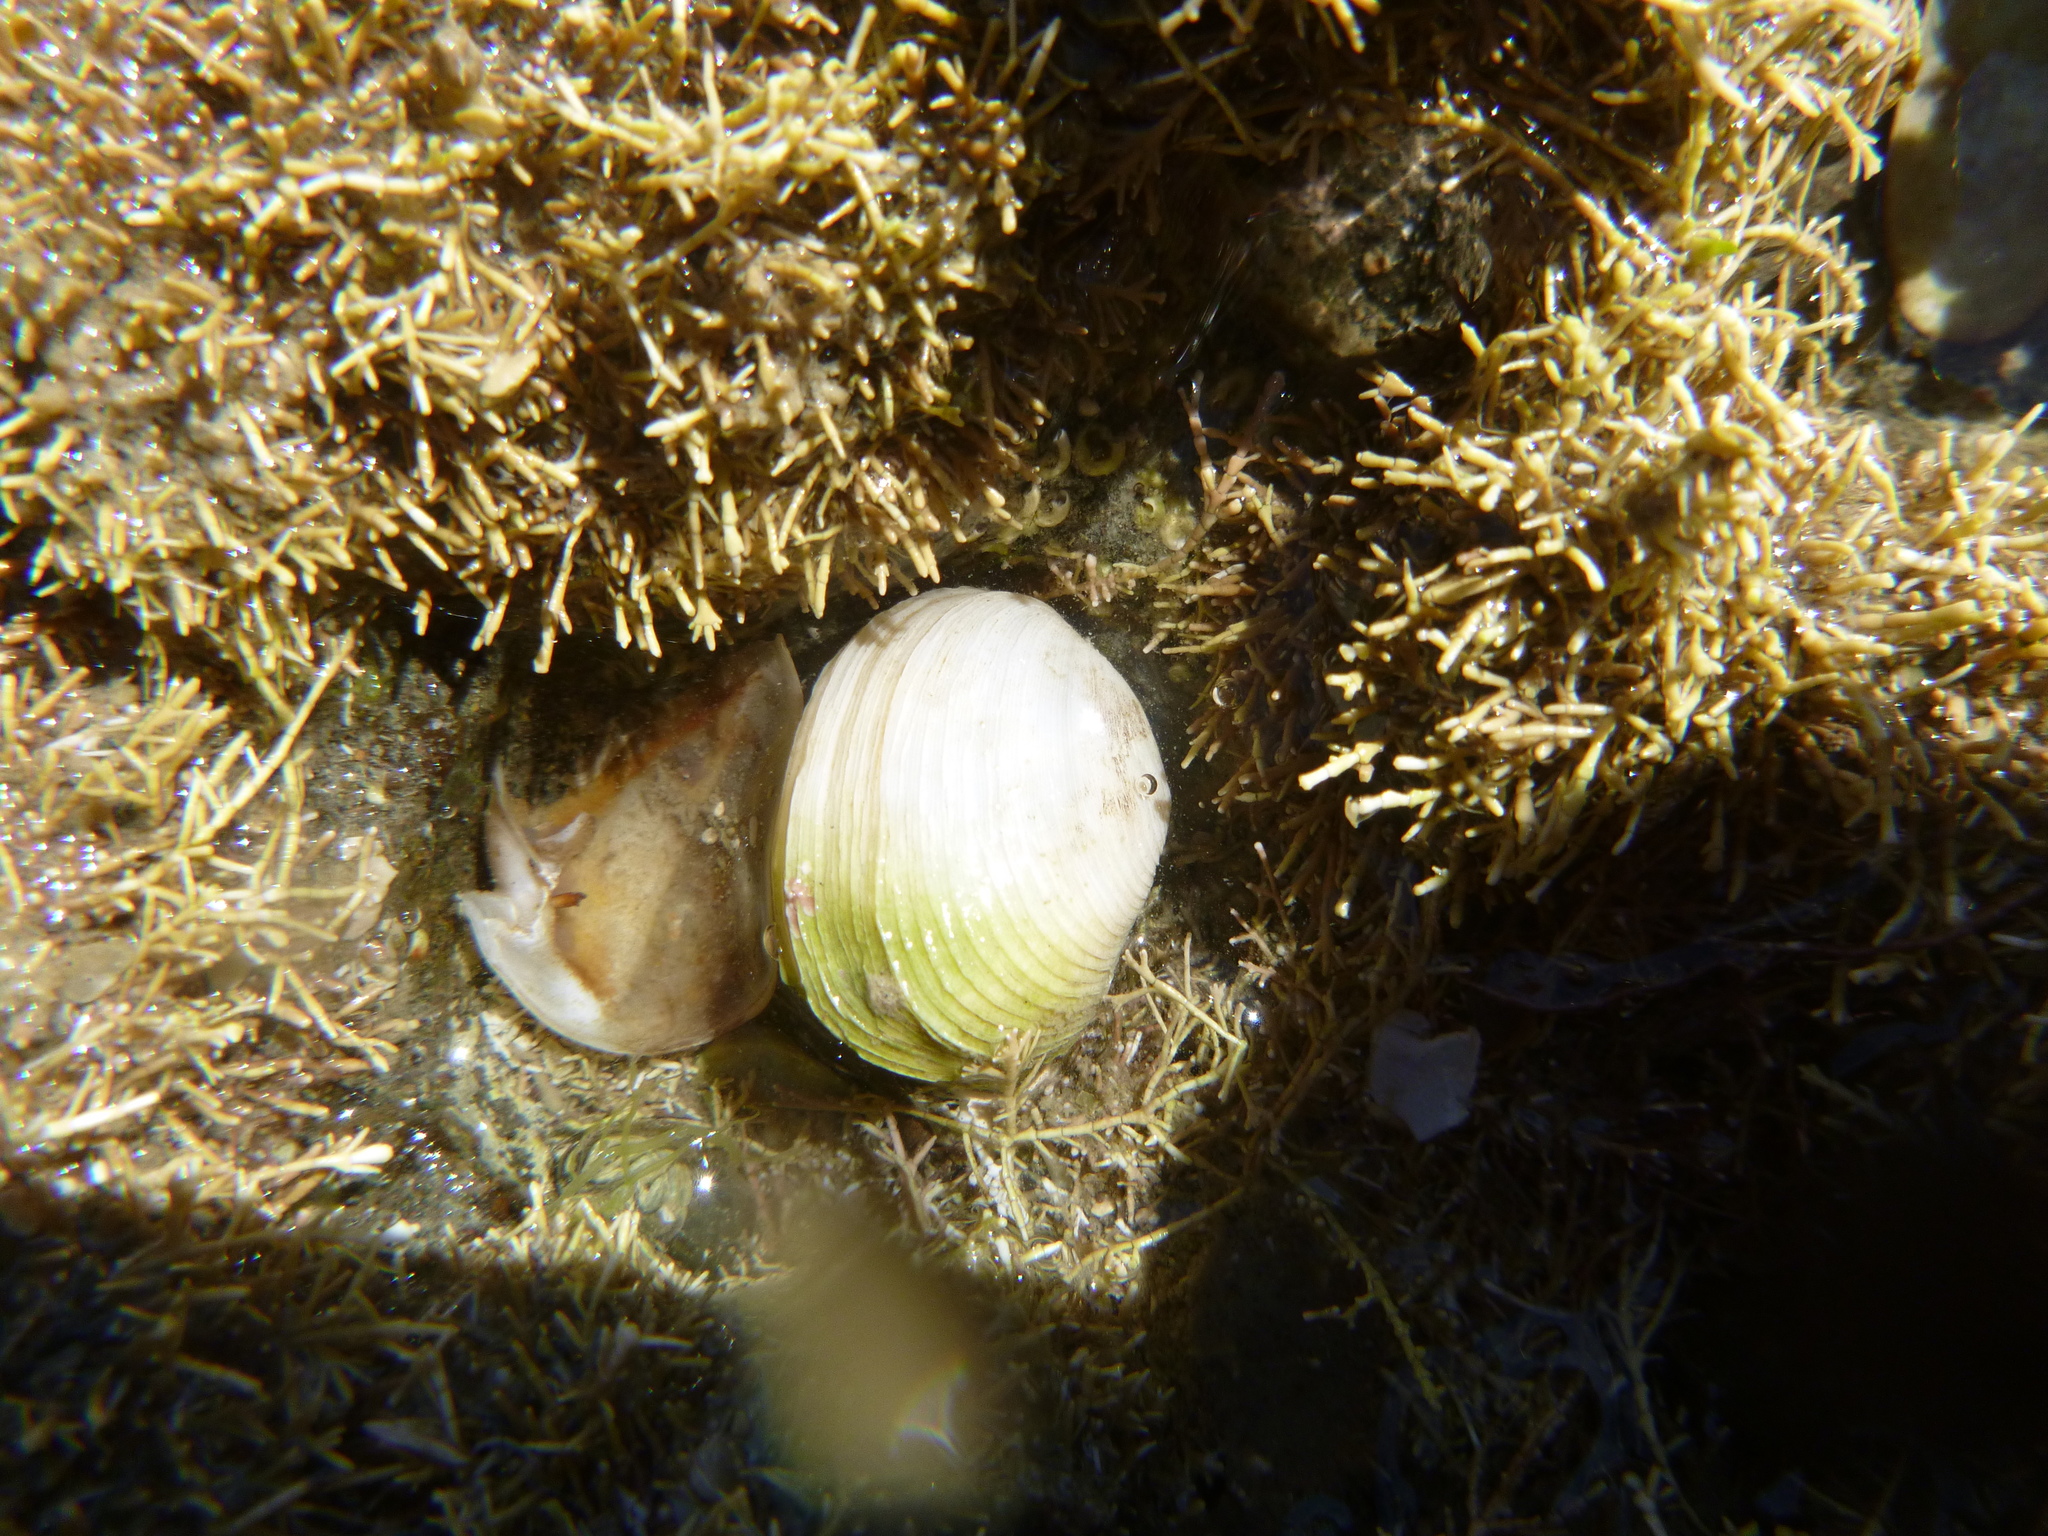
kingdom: Animalia
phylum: Mollusca
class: Bivalvia
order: Venerida
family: Veneridae
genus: Irus
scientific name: Irus reflexus
